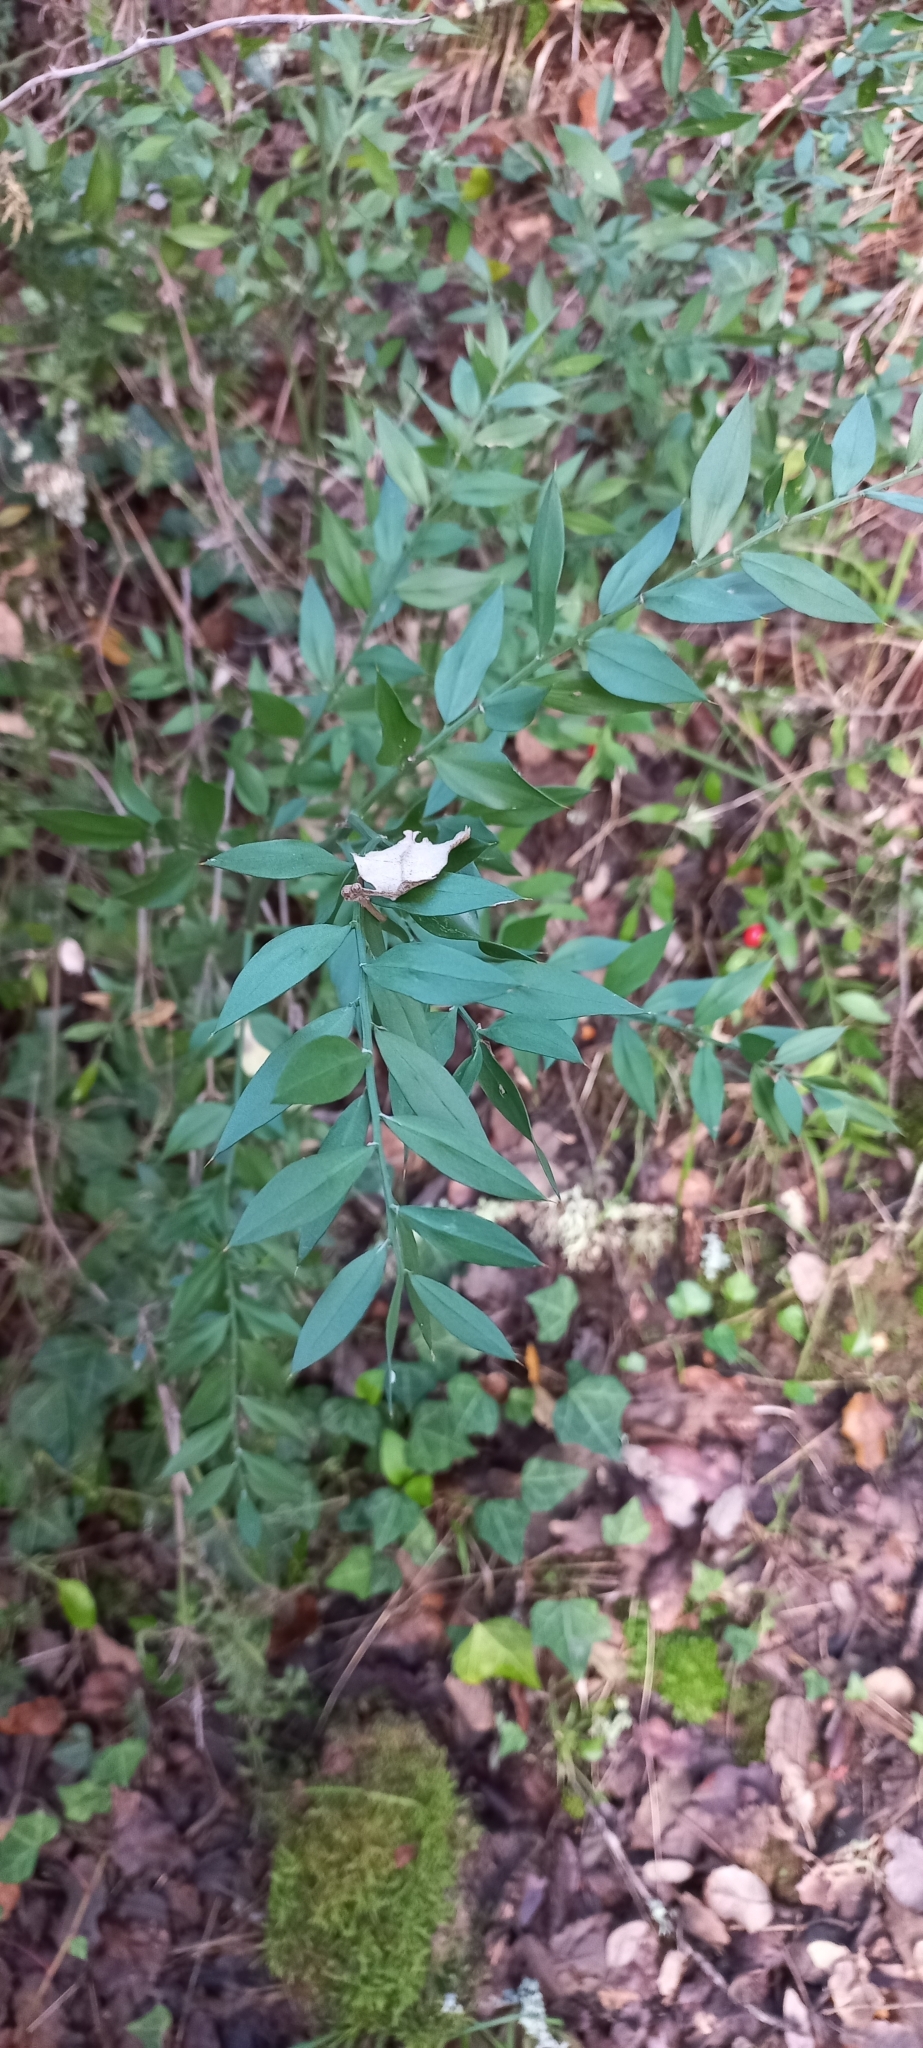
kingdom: Plantae
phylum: Tracheophyta
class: Liliopsida
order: Asparagales
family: Asparagaceae
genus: Ruscus
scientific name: Ruscus aculeatus
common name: Butcher's-broom
